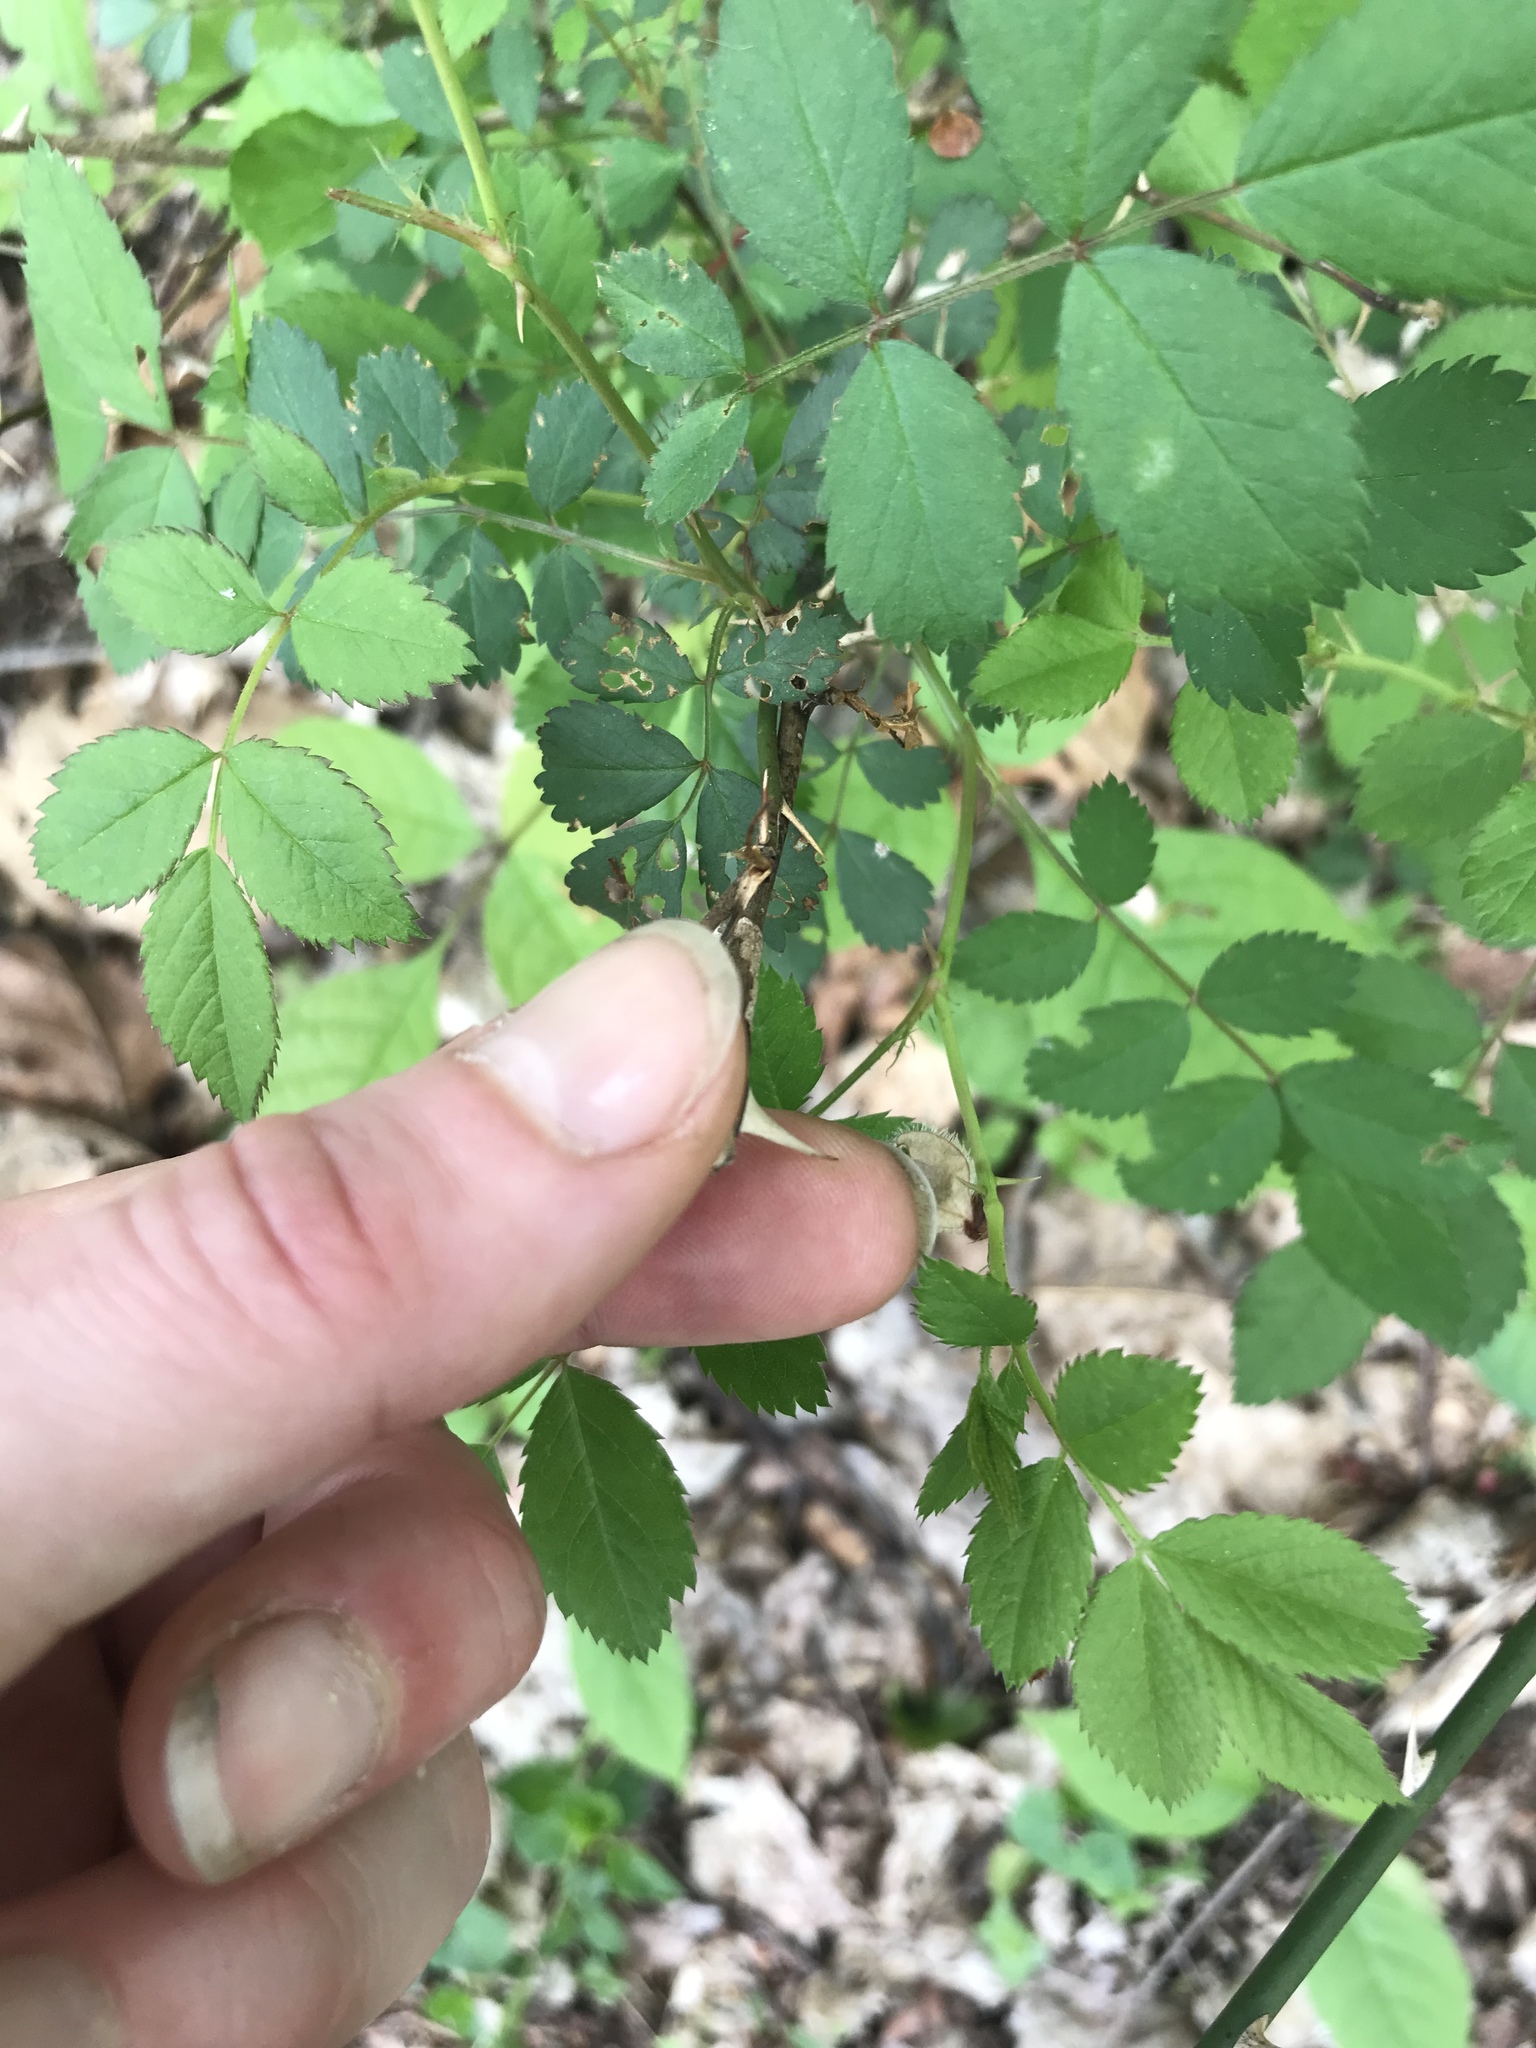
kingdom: Plantae
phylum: Tracheophyta
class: Magnoliopsida
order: Rosales
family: Rosaceae
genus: Rosa
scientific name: Rosa multiflora
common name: Multiflora rose
